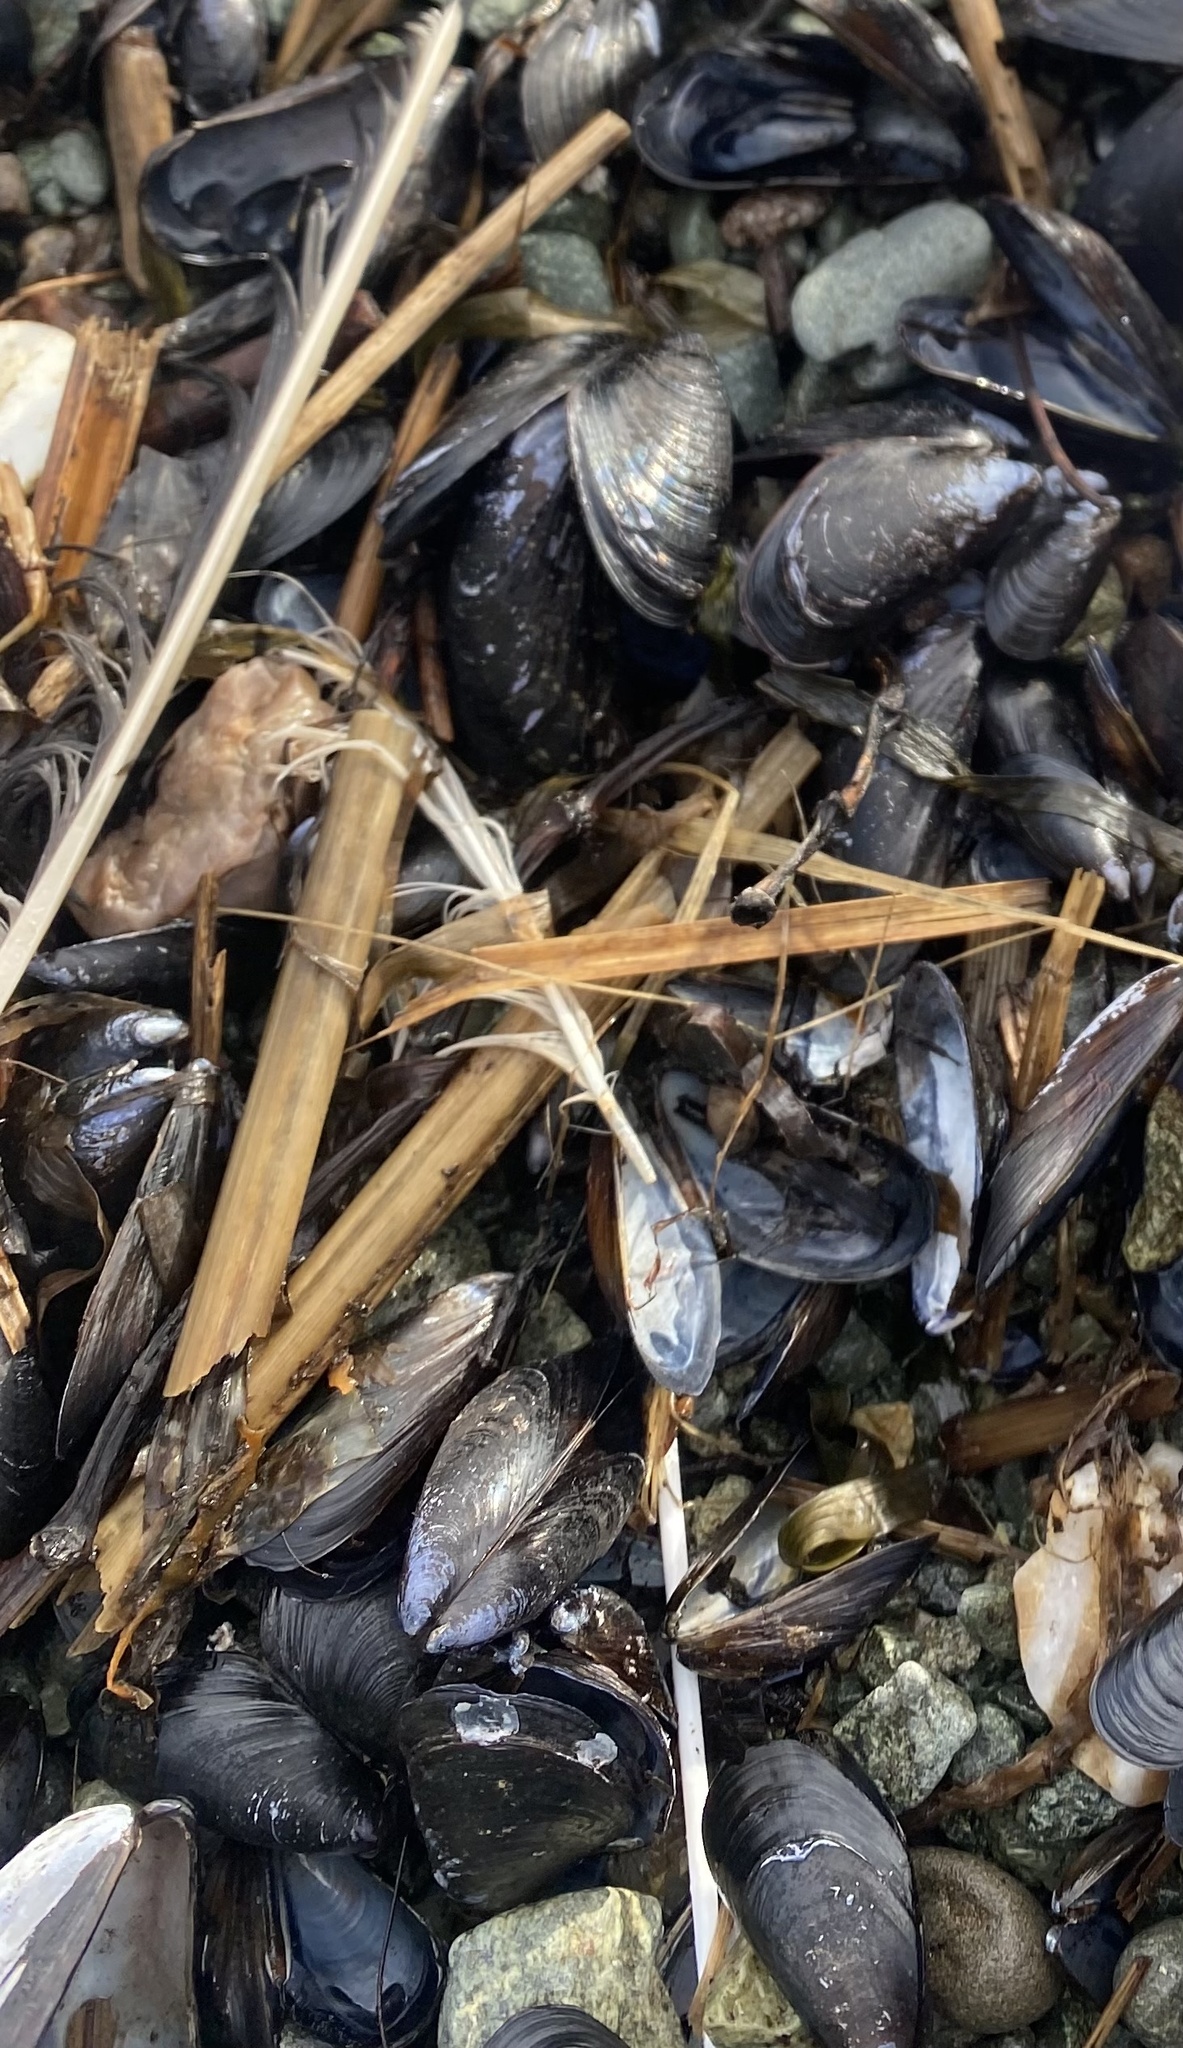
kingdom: Animalia
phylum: Mollusca
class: Bivalvia
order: Mytilida
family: Mytilidae
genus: Mytilus
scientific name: Mytilus trossulus
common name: Northern blue mussel
